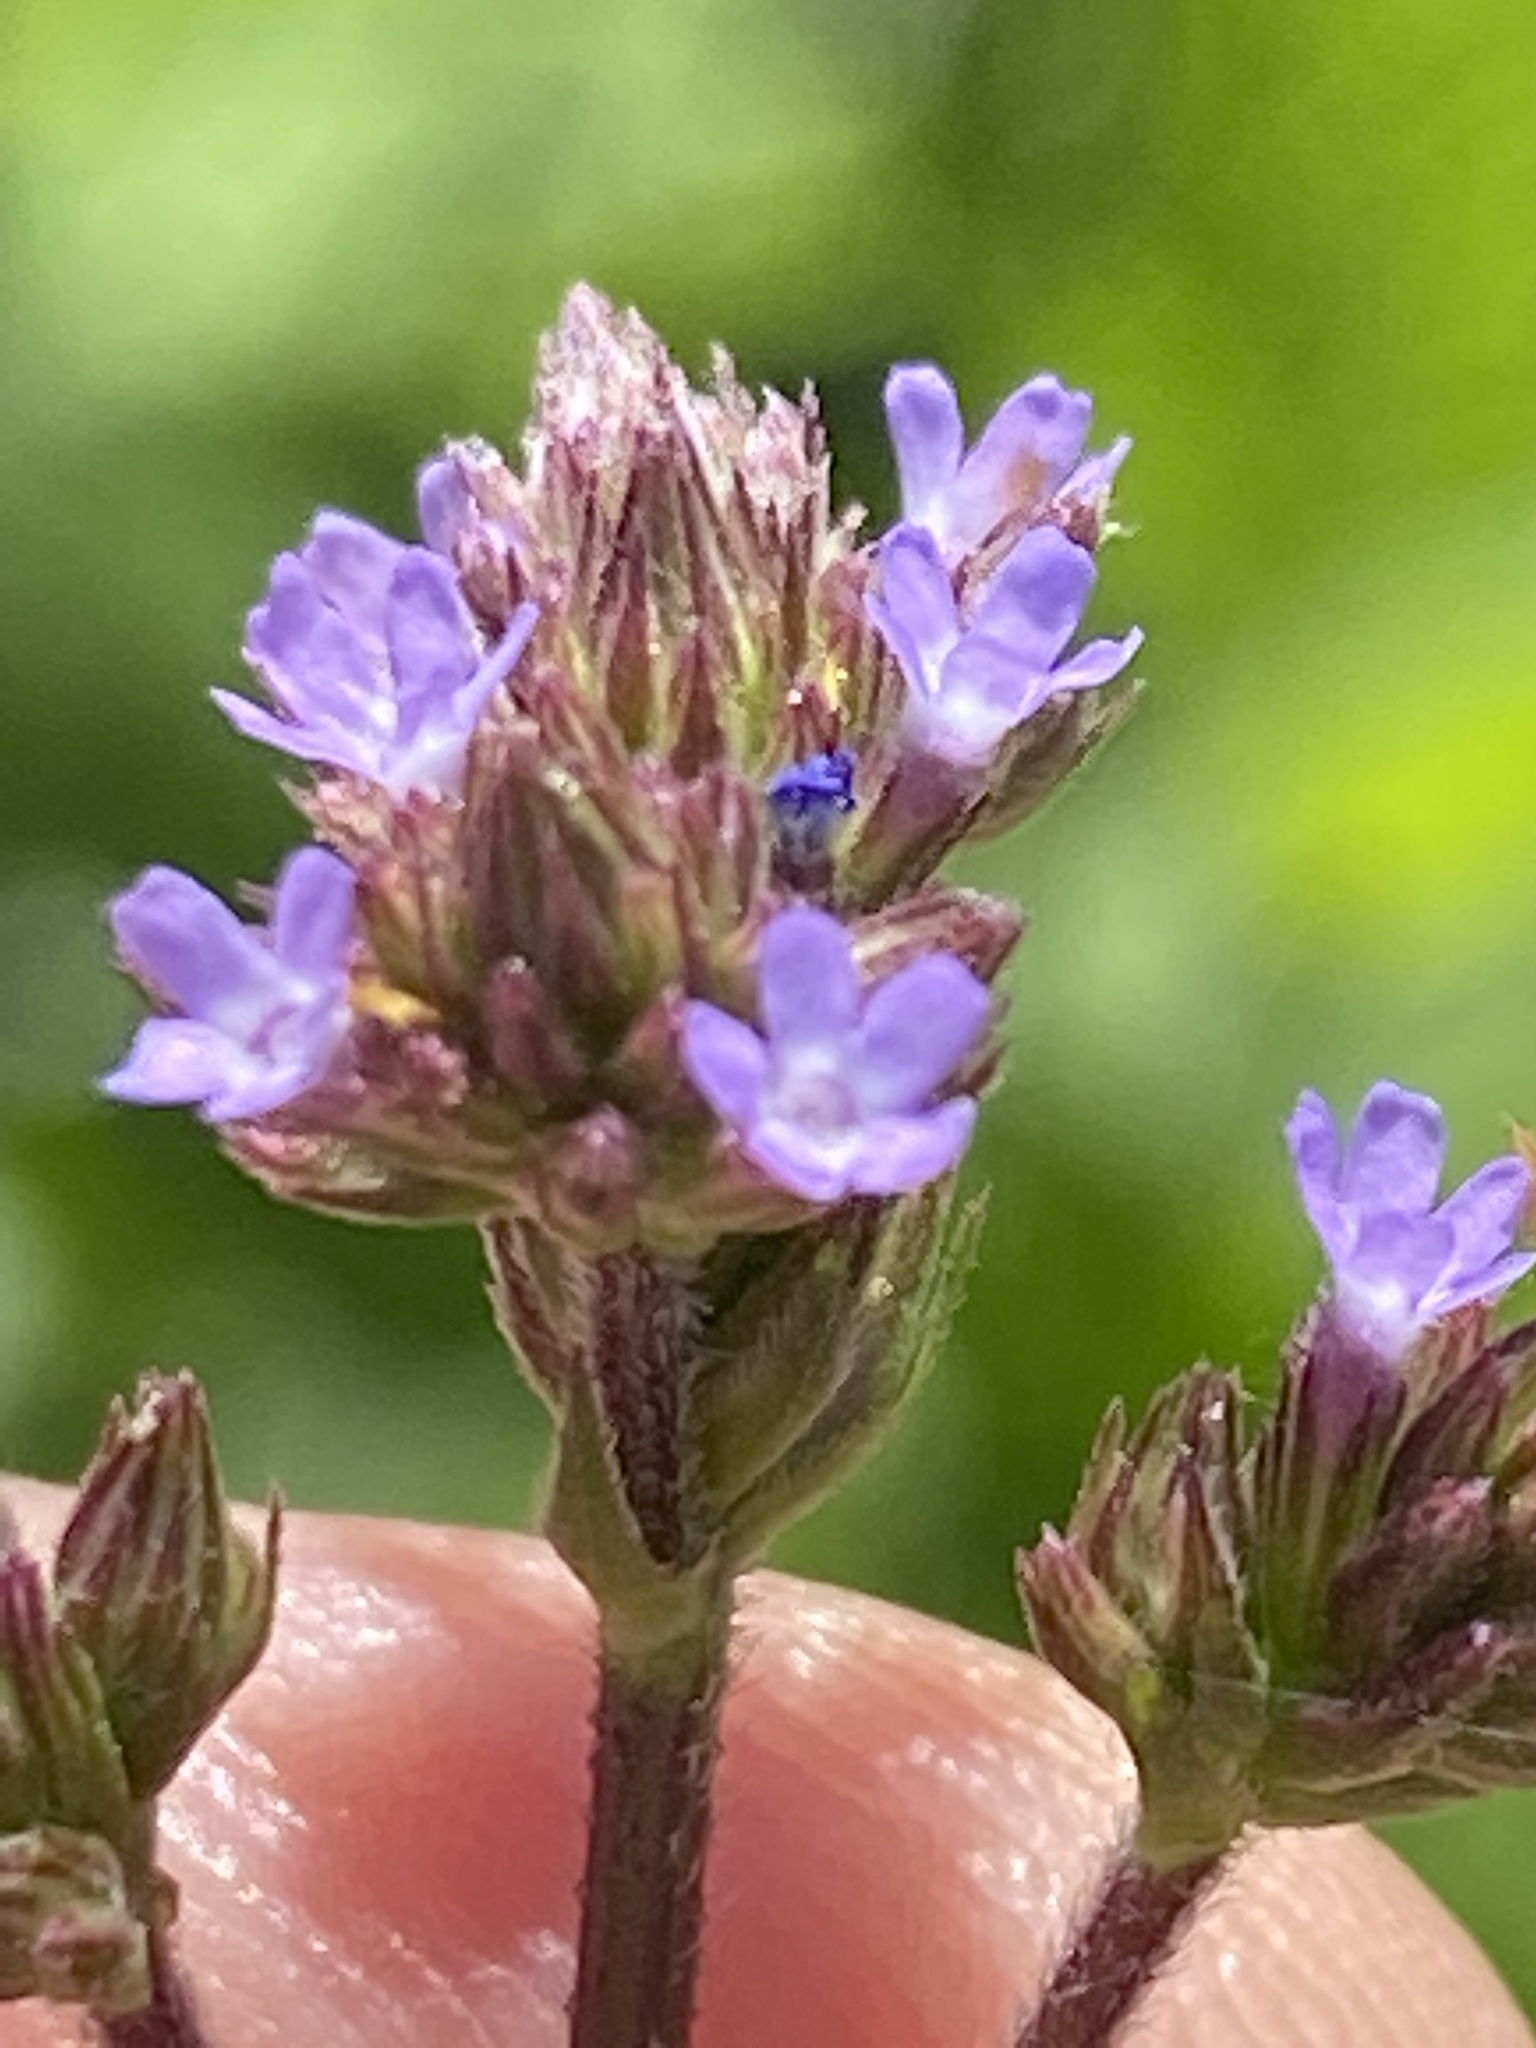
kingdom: Plantae
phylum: Tracheophyta
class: Magnoliopsida
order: Lamiales
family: Verbenaceae
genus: Verbena
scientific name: Verbena brasiliensis
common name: Brazilian vervain
